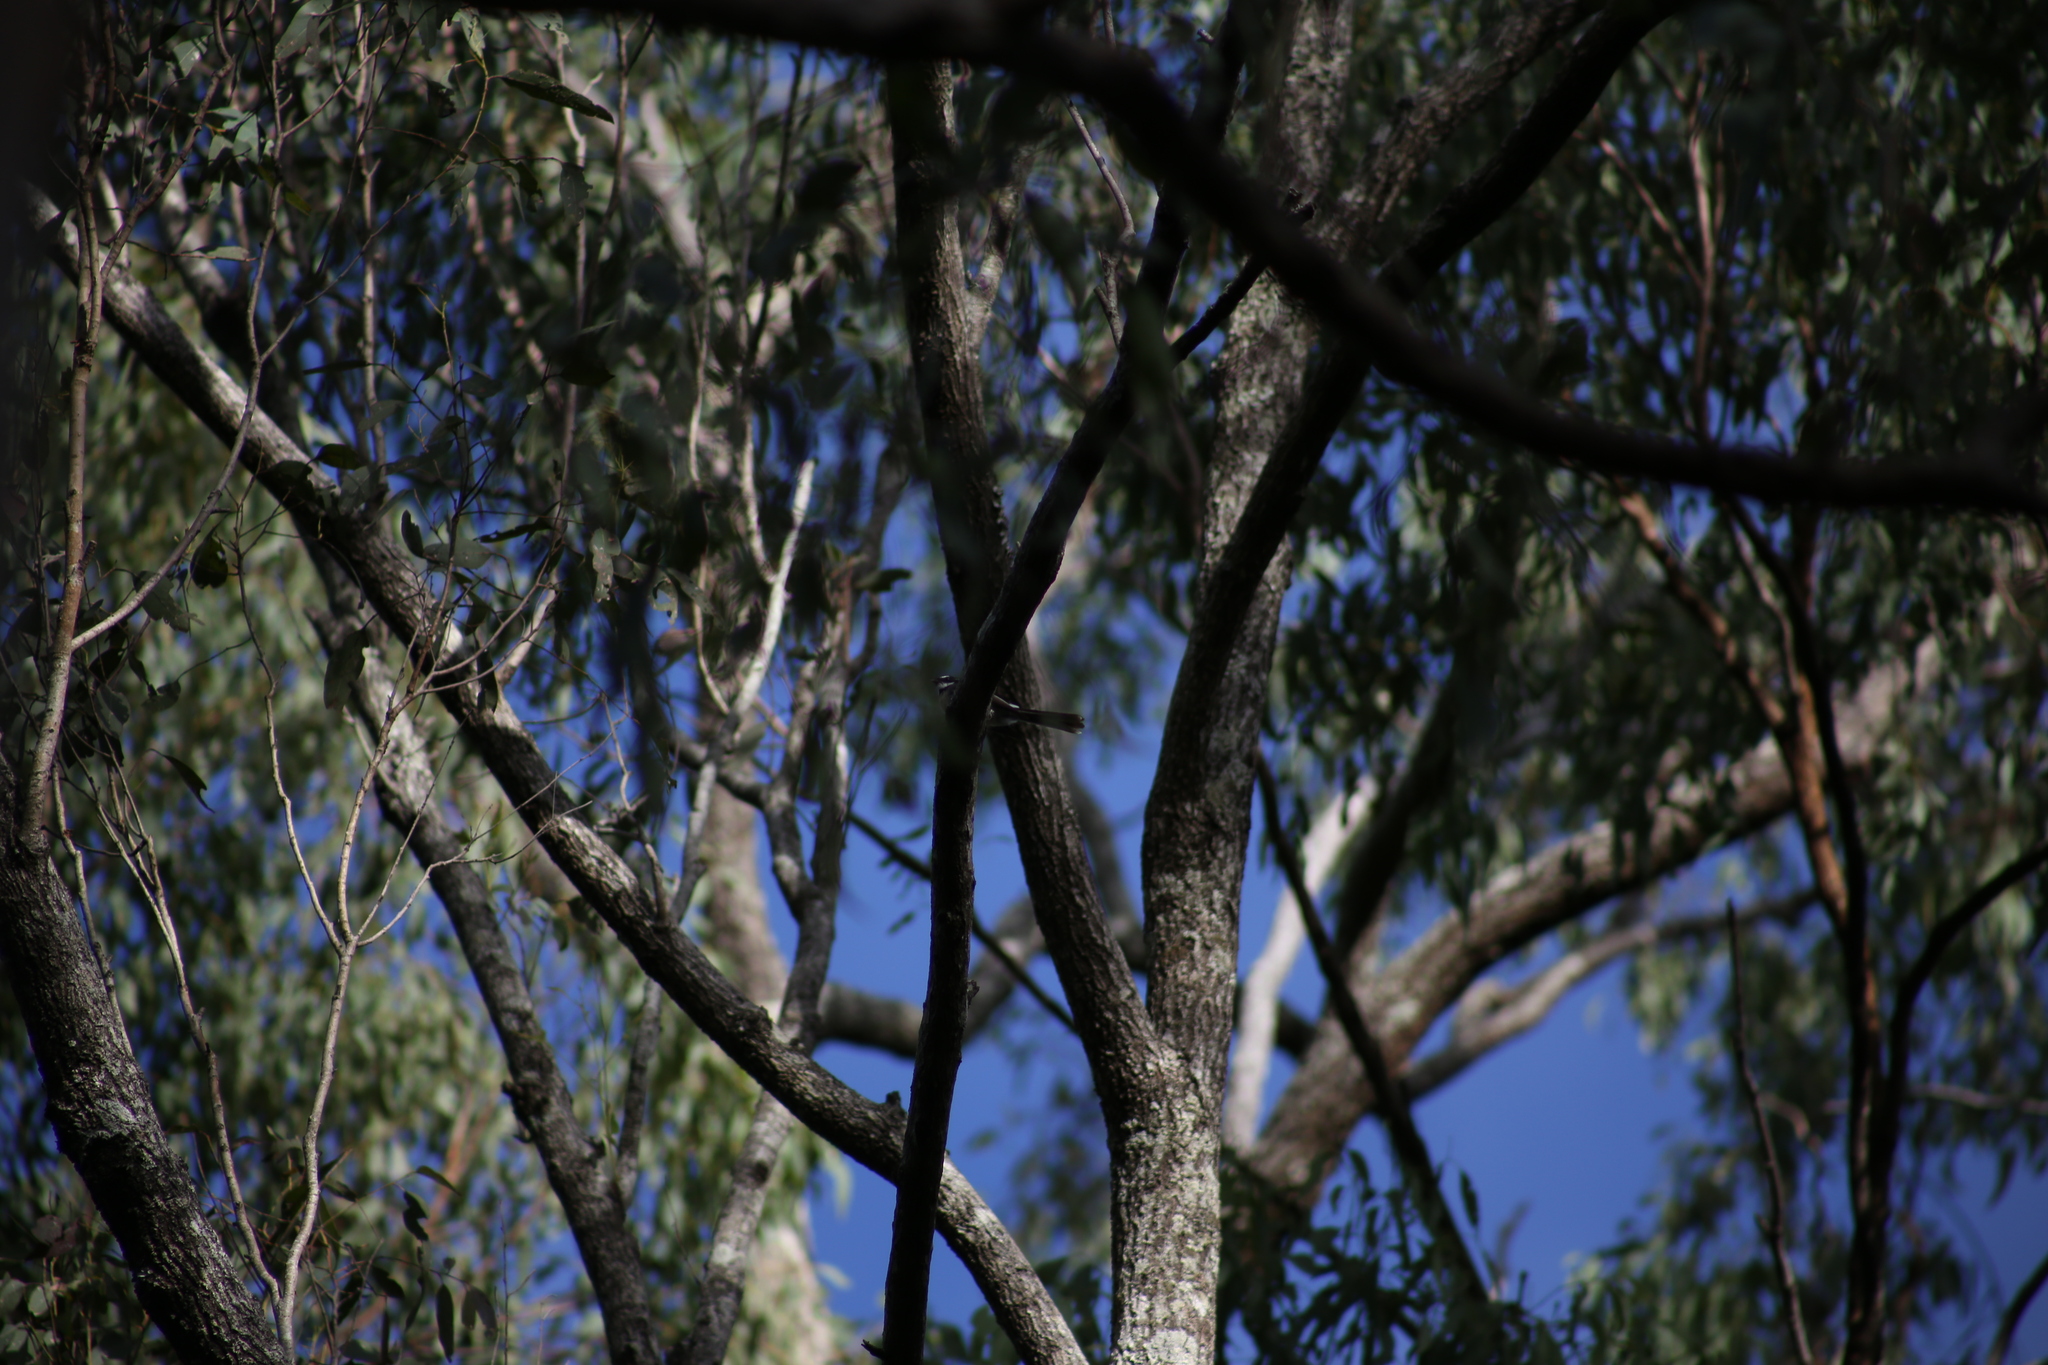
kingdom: Animalia
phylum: Chordata
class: Aves
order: Passeriformes
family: Rhipiduridae
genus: Rhipidura
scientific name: Rhipidura albiscapa
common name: Grey fantail
